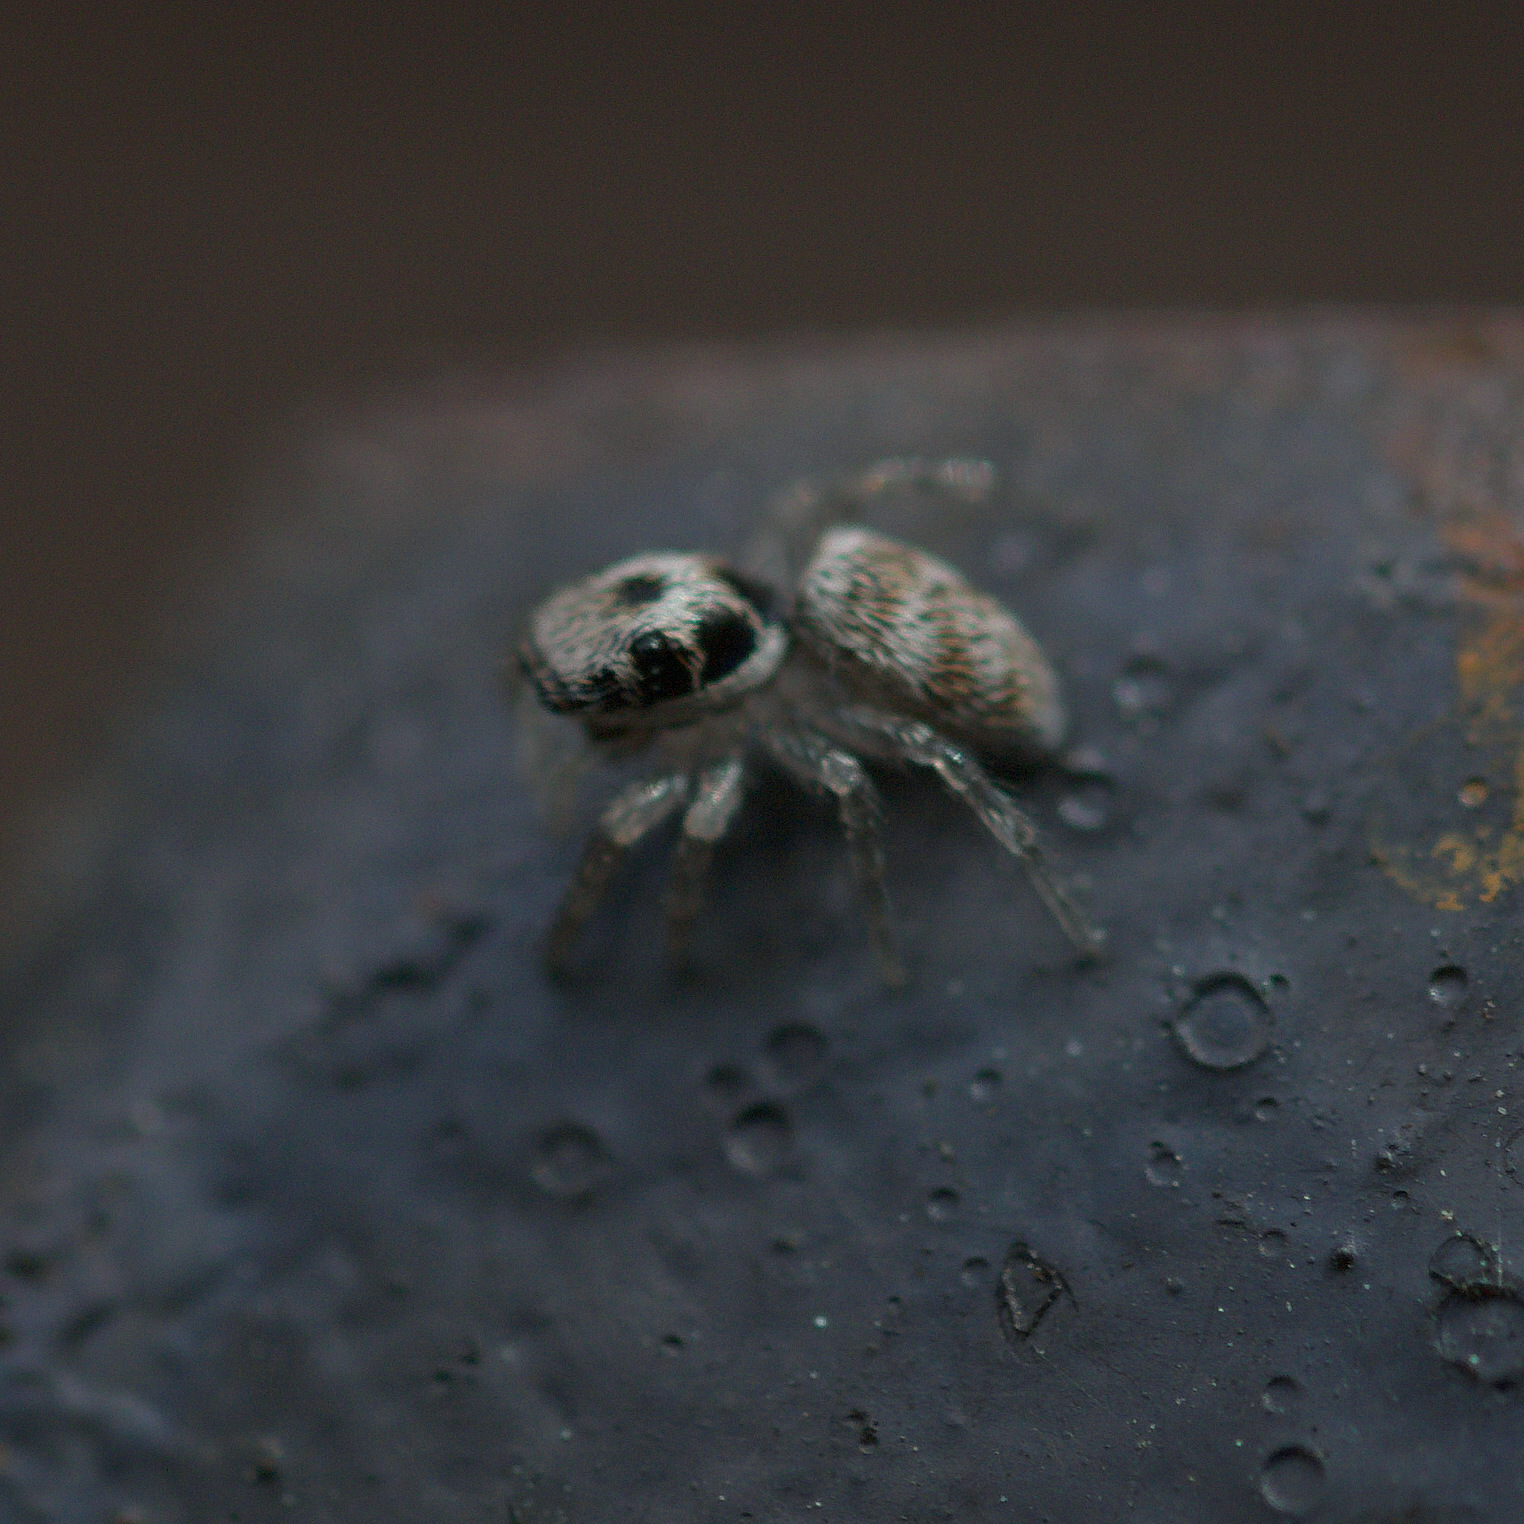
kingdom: Animalia
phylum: Arthropoda
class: Arachnida
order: Araneae
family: Salticidae
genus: Salticus
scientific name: Salticus scenicus
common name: Zebra jumper
